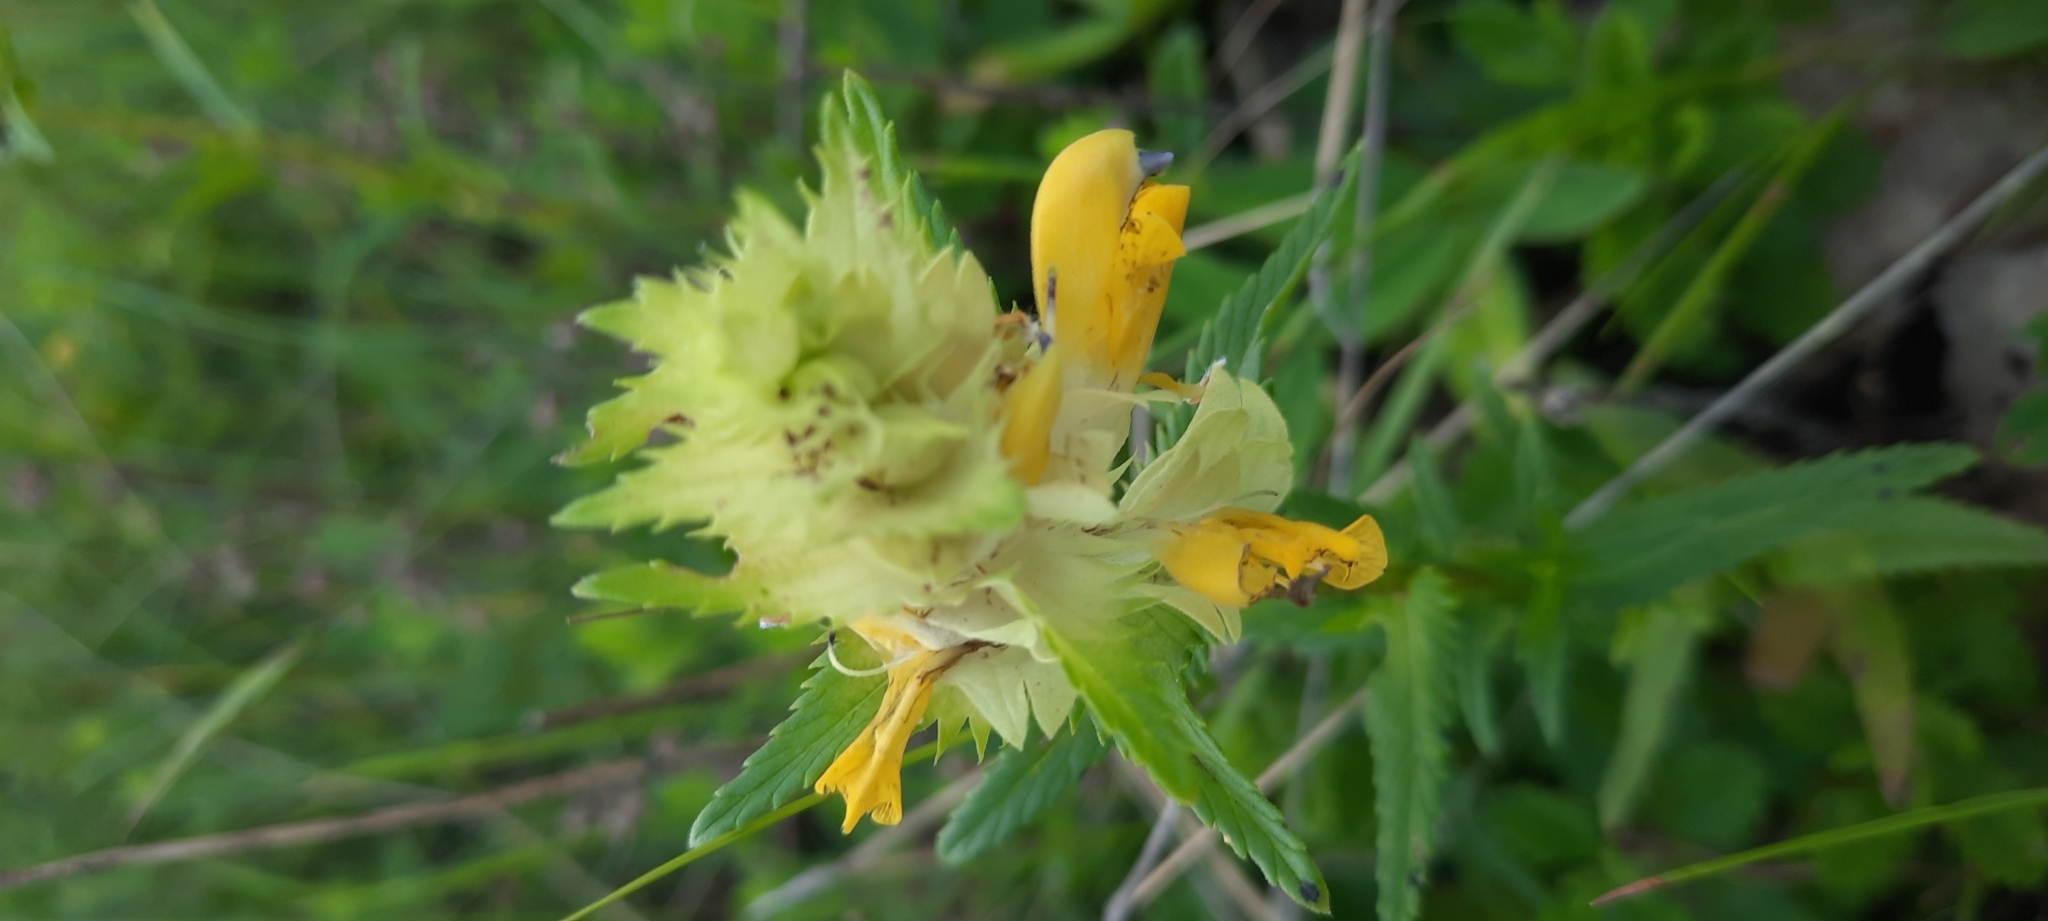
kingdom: Plantae
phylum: Tracheophyta
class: Magnoliopsida
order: Lamiales
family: Orobanchaceae
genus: Rhinanthus
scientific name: Rhinanthus serotinus
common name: Late-flowering yellow rattle
